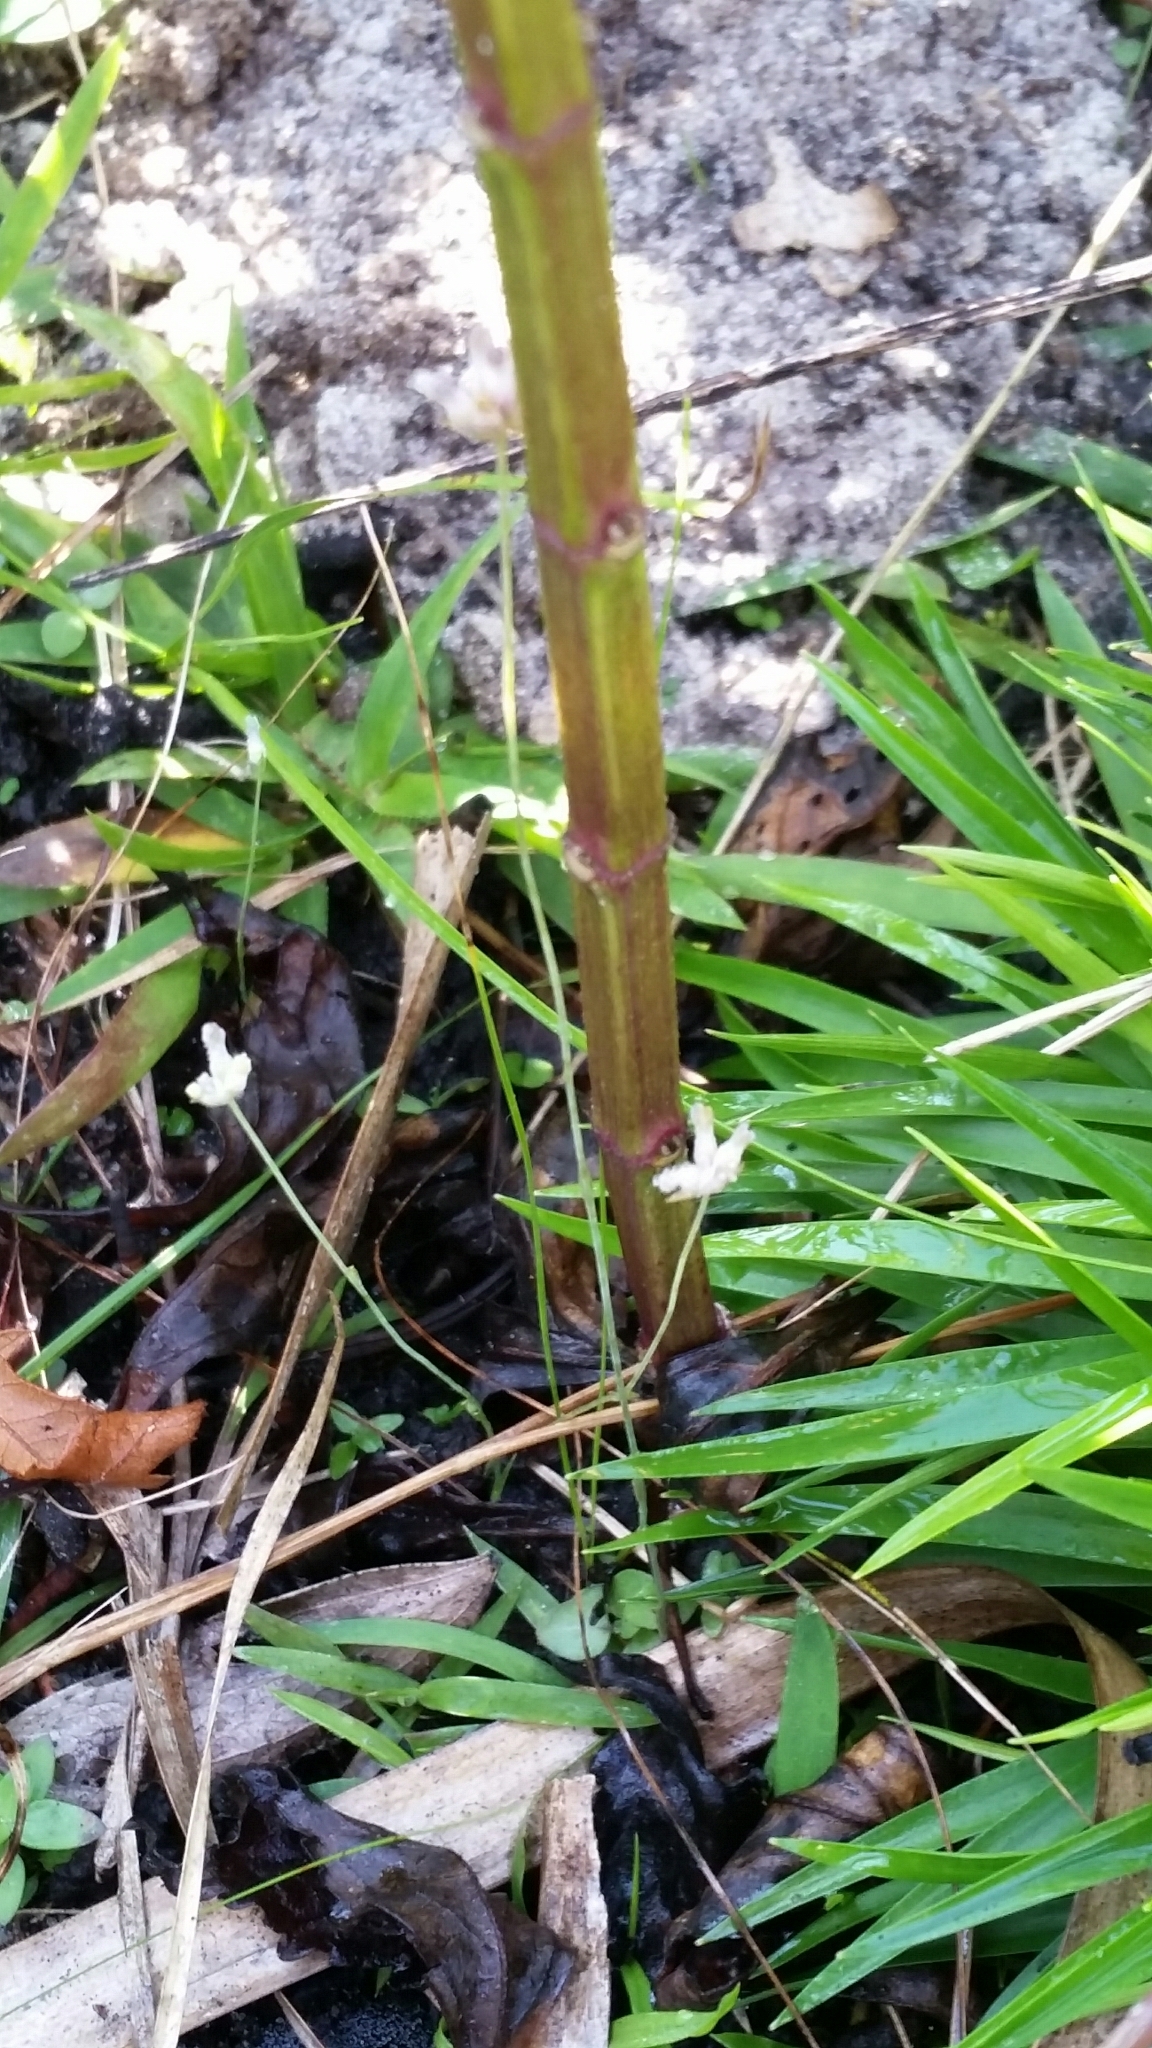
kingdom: Plantae
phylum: Tracheophyta
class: Liliopsida
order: Dioscoreales
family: Burmanniaceae
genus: Burmannia
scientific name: Burmannia capitata
